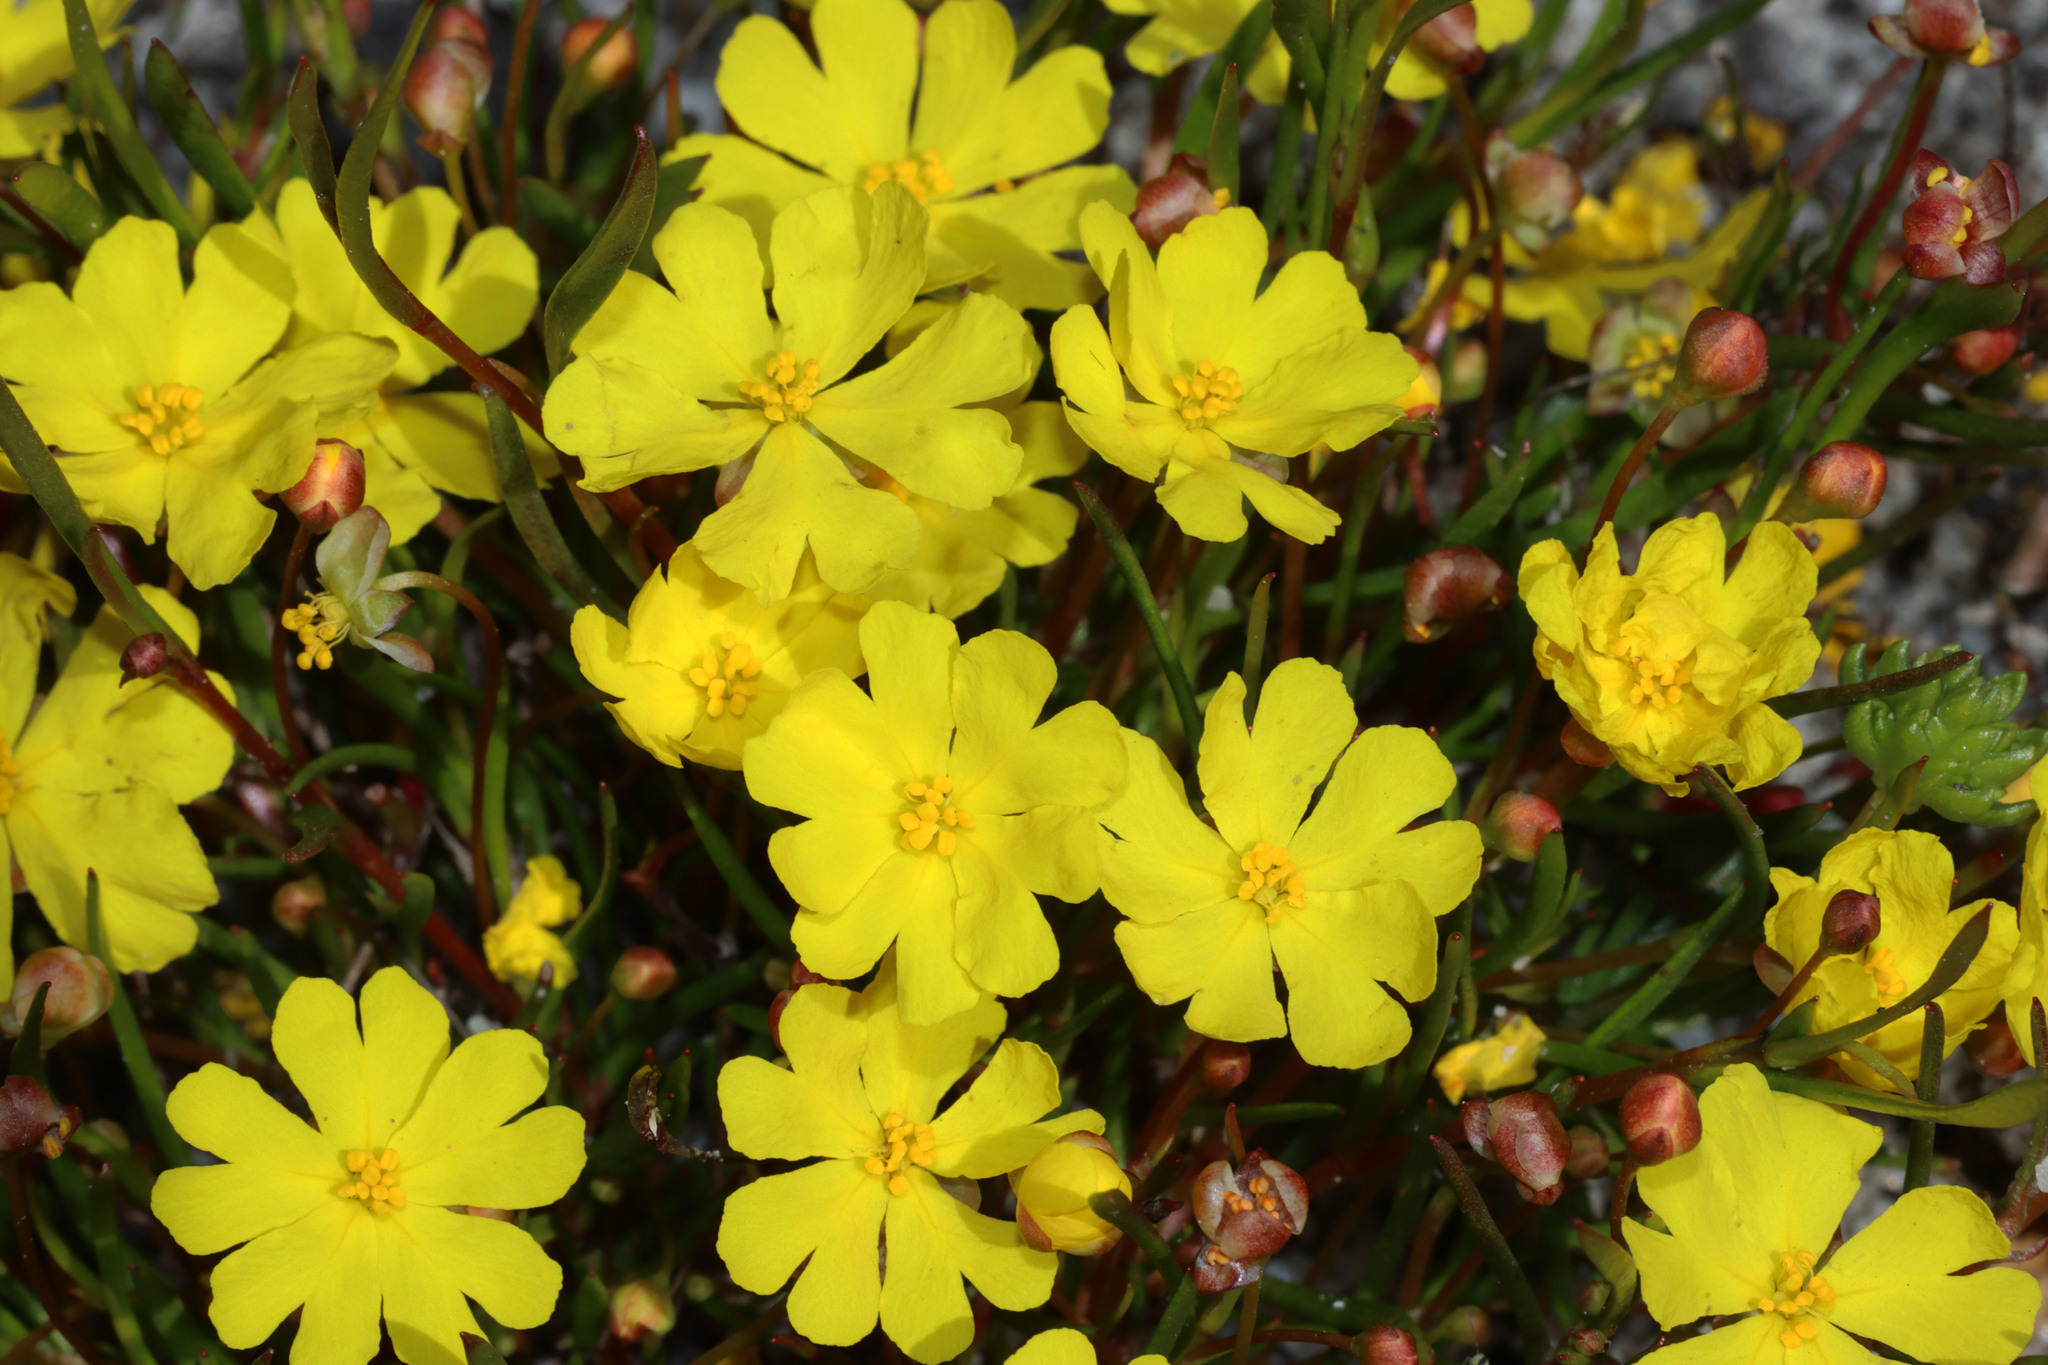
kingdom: Plantae
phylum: Tracheophyta
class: Magnoliopsida
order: Dilleniales
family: Dilleniaceae
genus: Hibbertia
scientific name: Hibbertia stellaris
